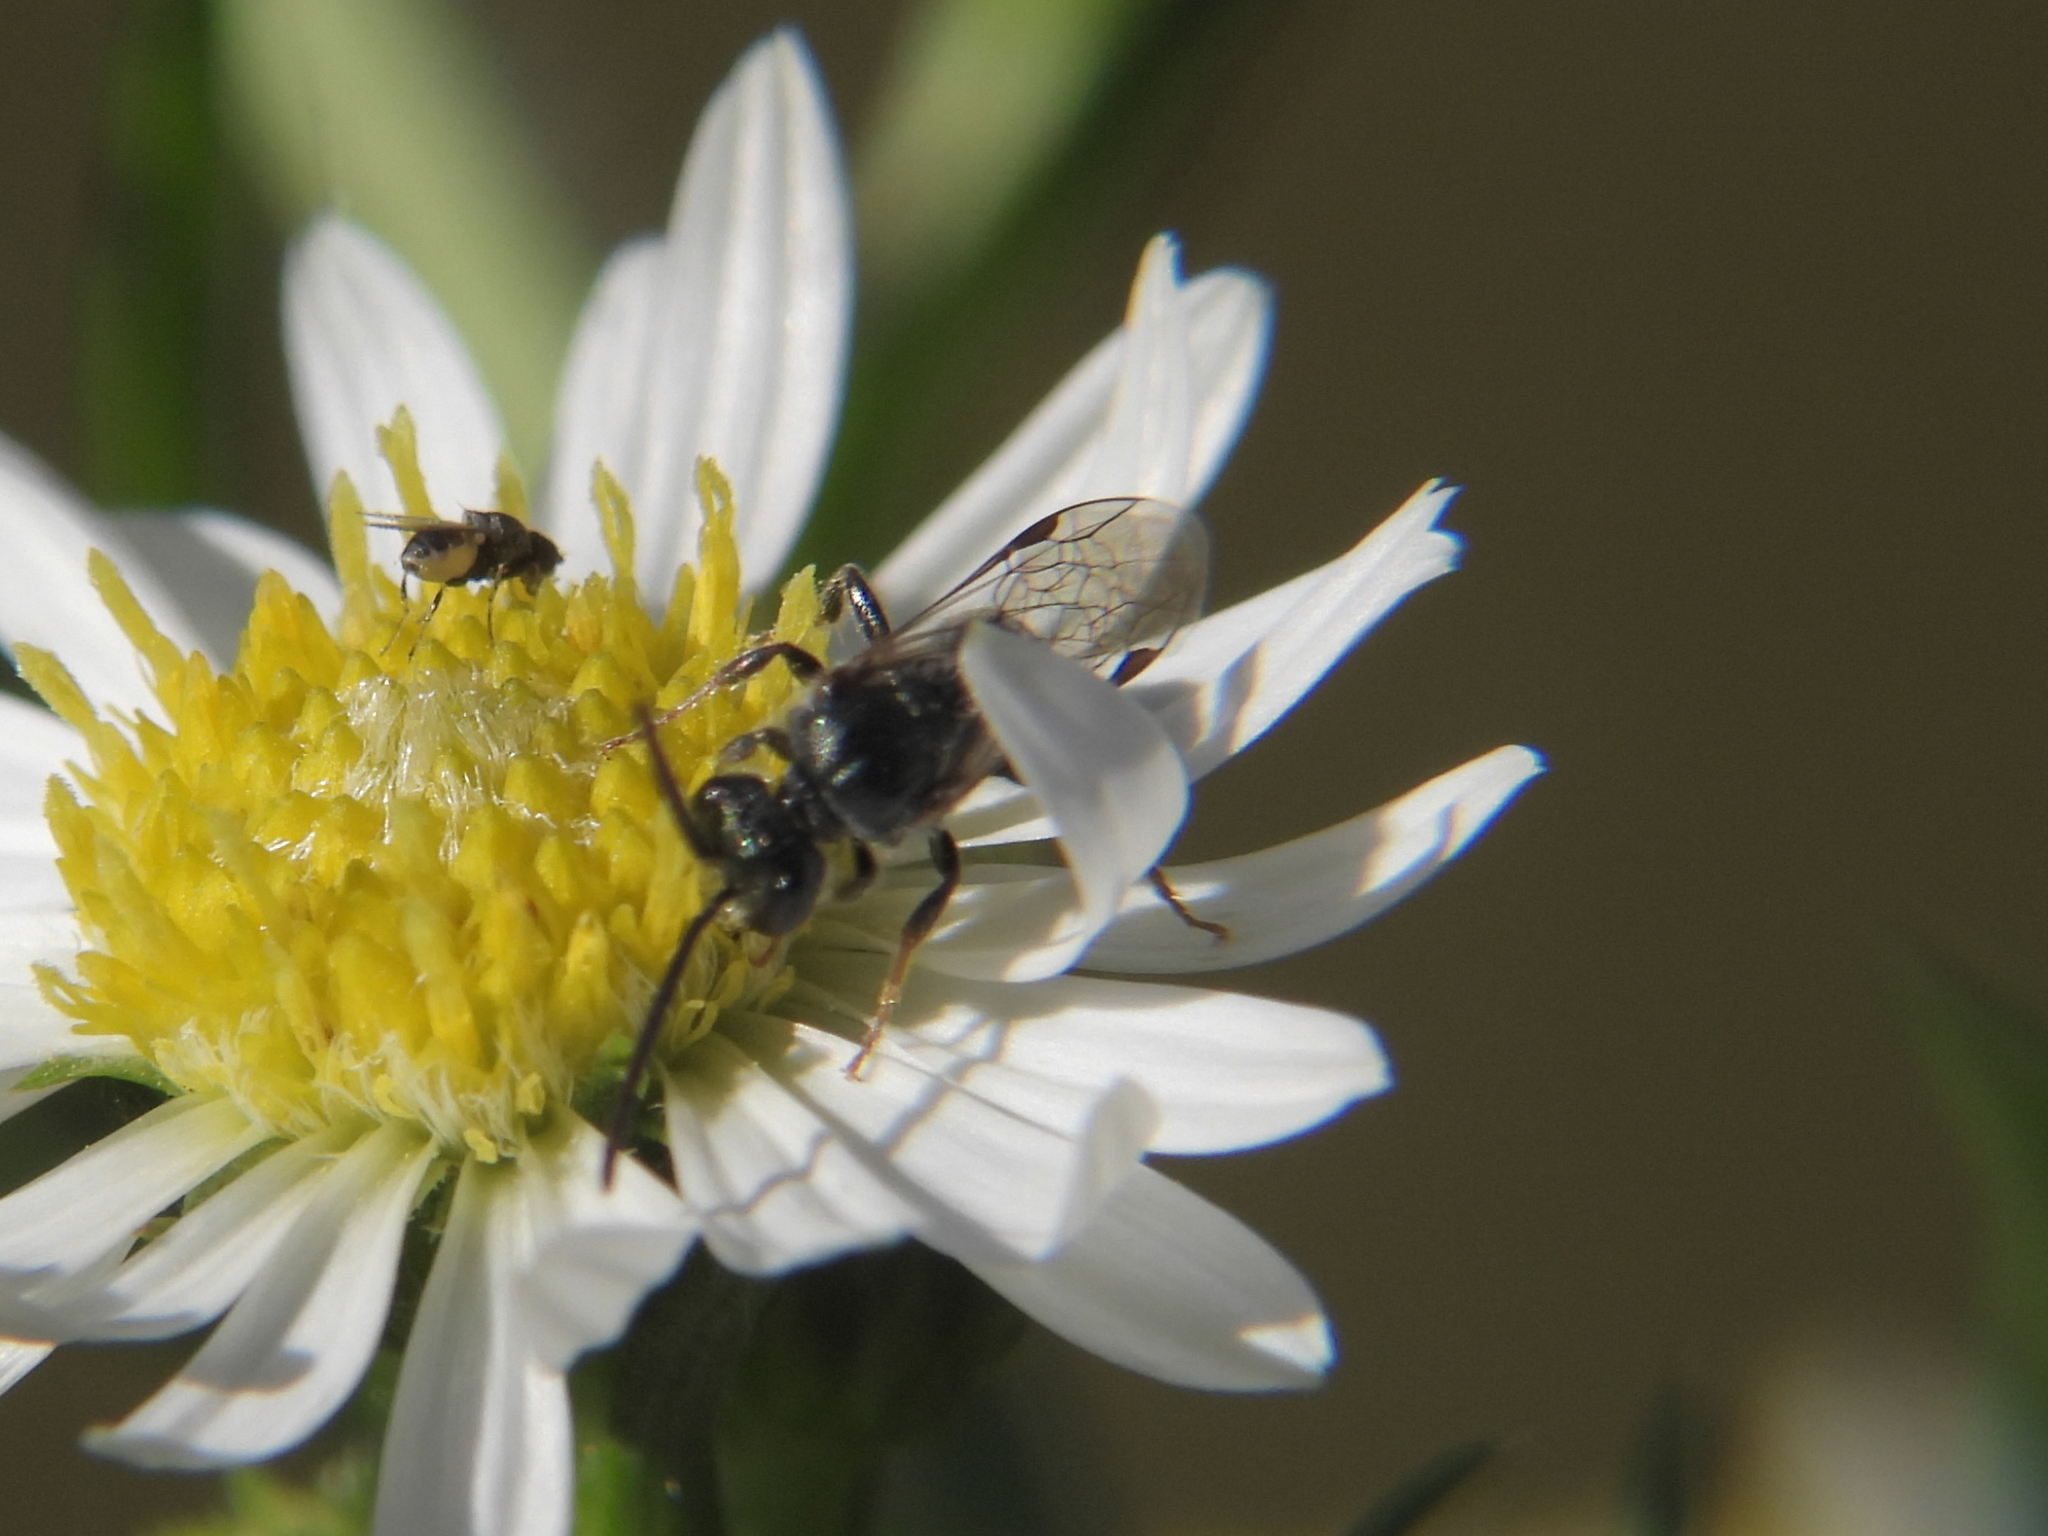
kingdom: Animalia
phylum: Arthropoda
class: Insecta
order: Hymenoptera
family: Halictidae
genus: Lasioglossum
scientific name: Lasioglossum fuscipenne
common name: Brown-winged sweat bee
